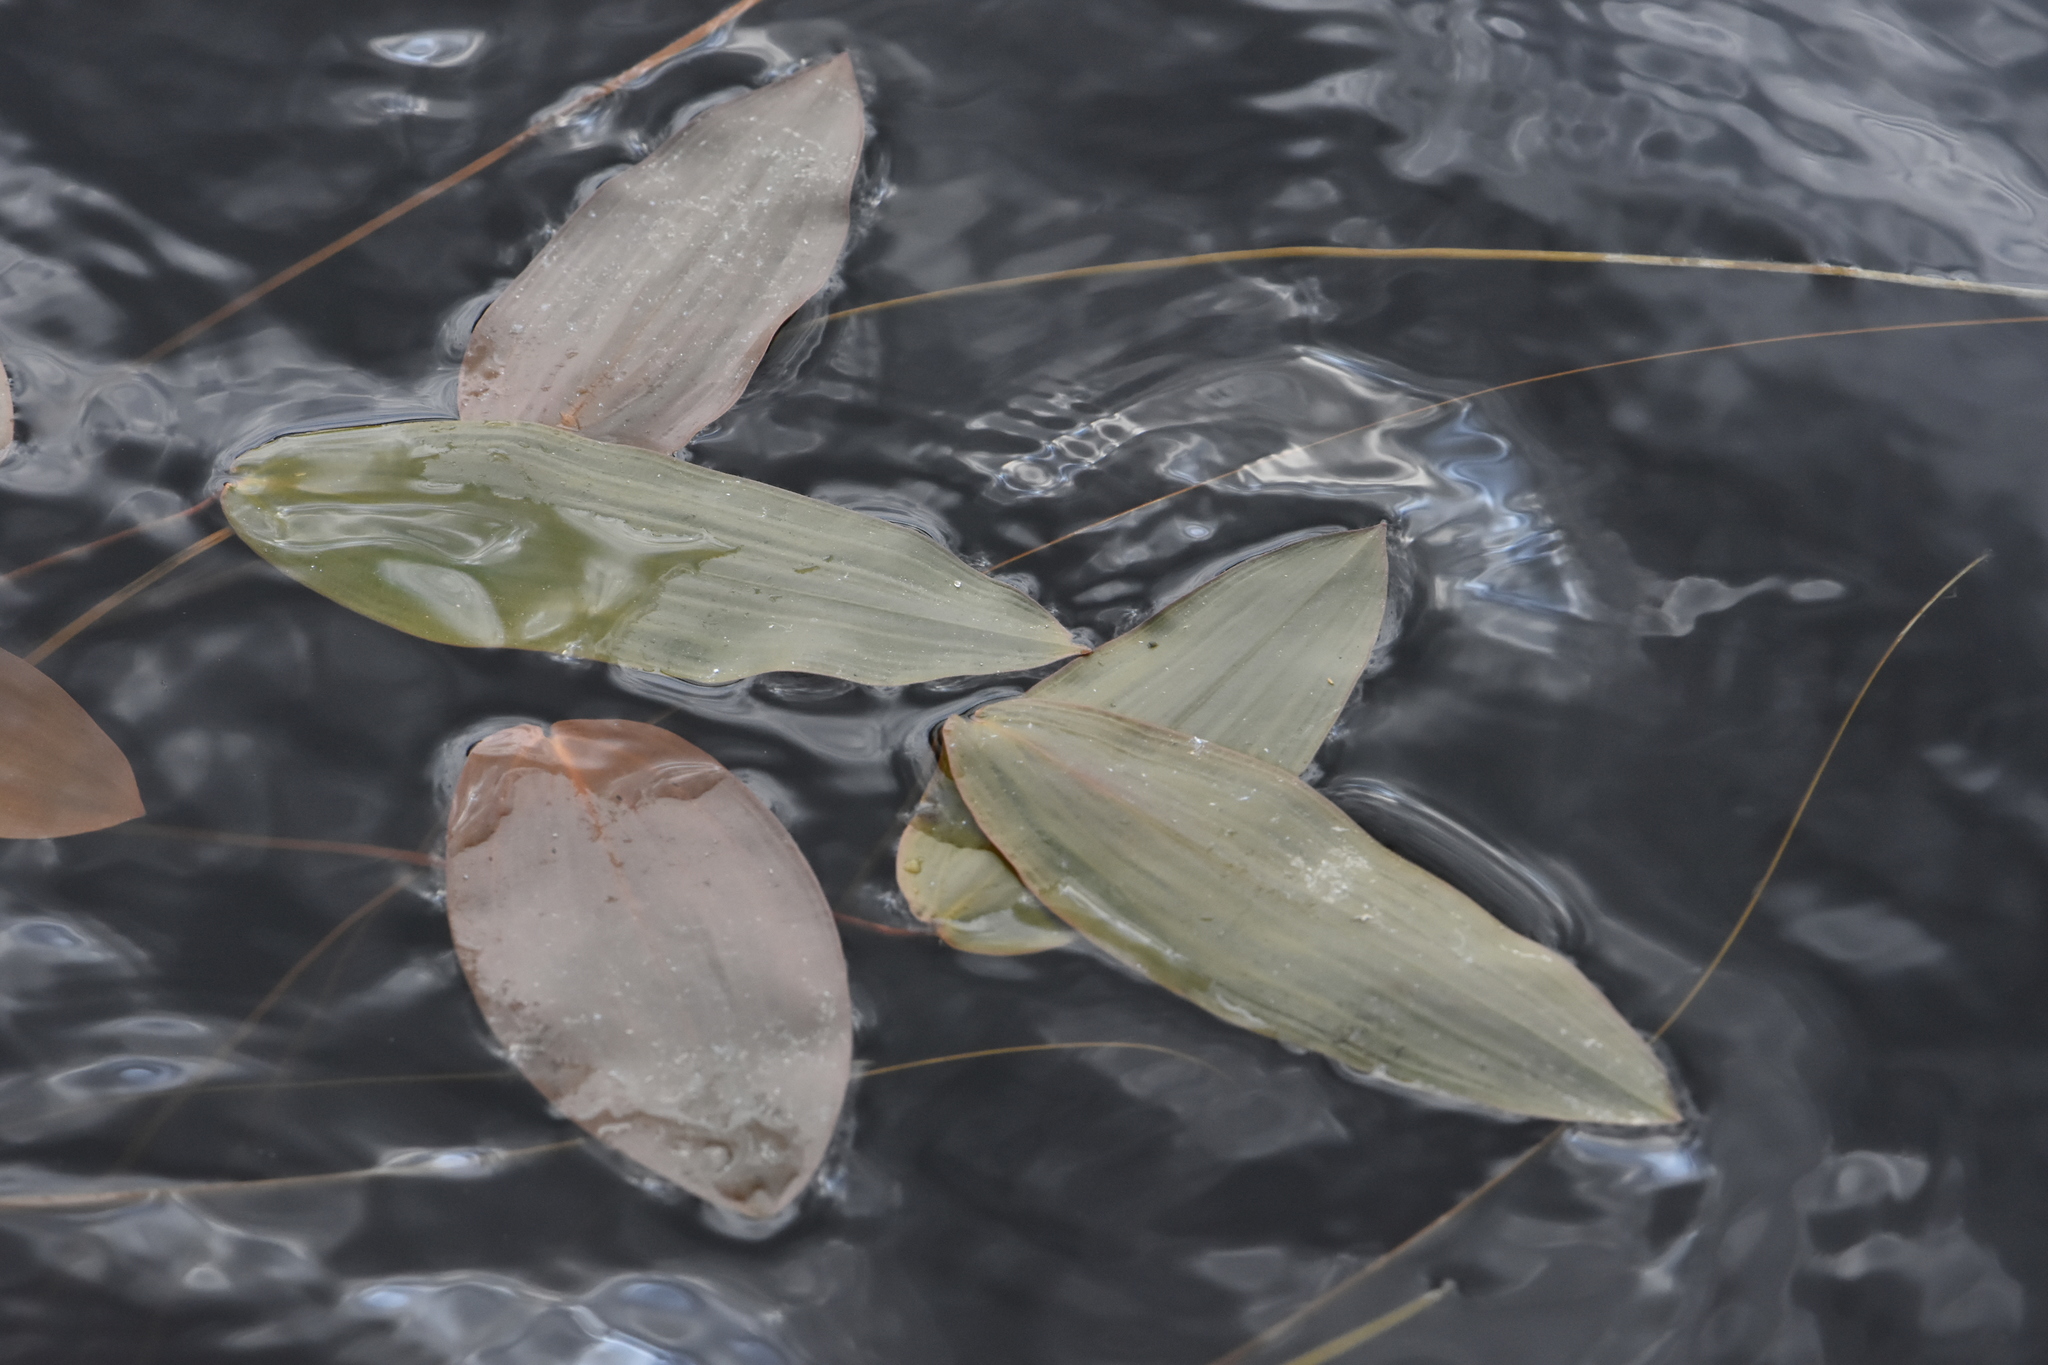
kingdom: Plantae
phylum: Tracheophyta
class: Liliopsida
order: Alismatales
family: Potamogetonaceae
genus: Potamogeton
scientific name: Potamogeton natans
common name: Broad-leaved pondweed
